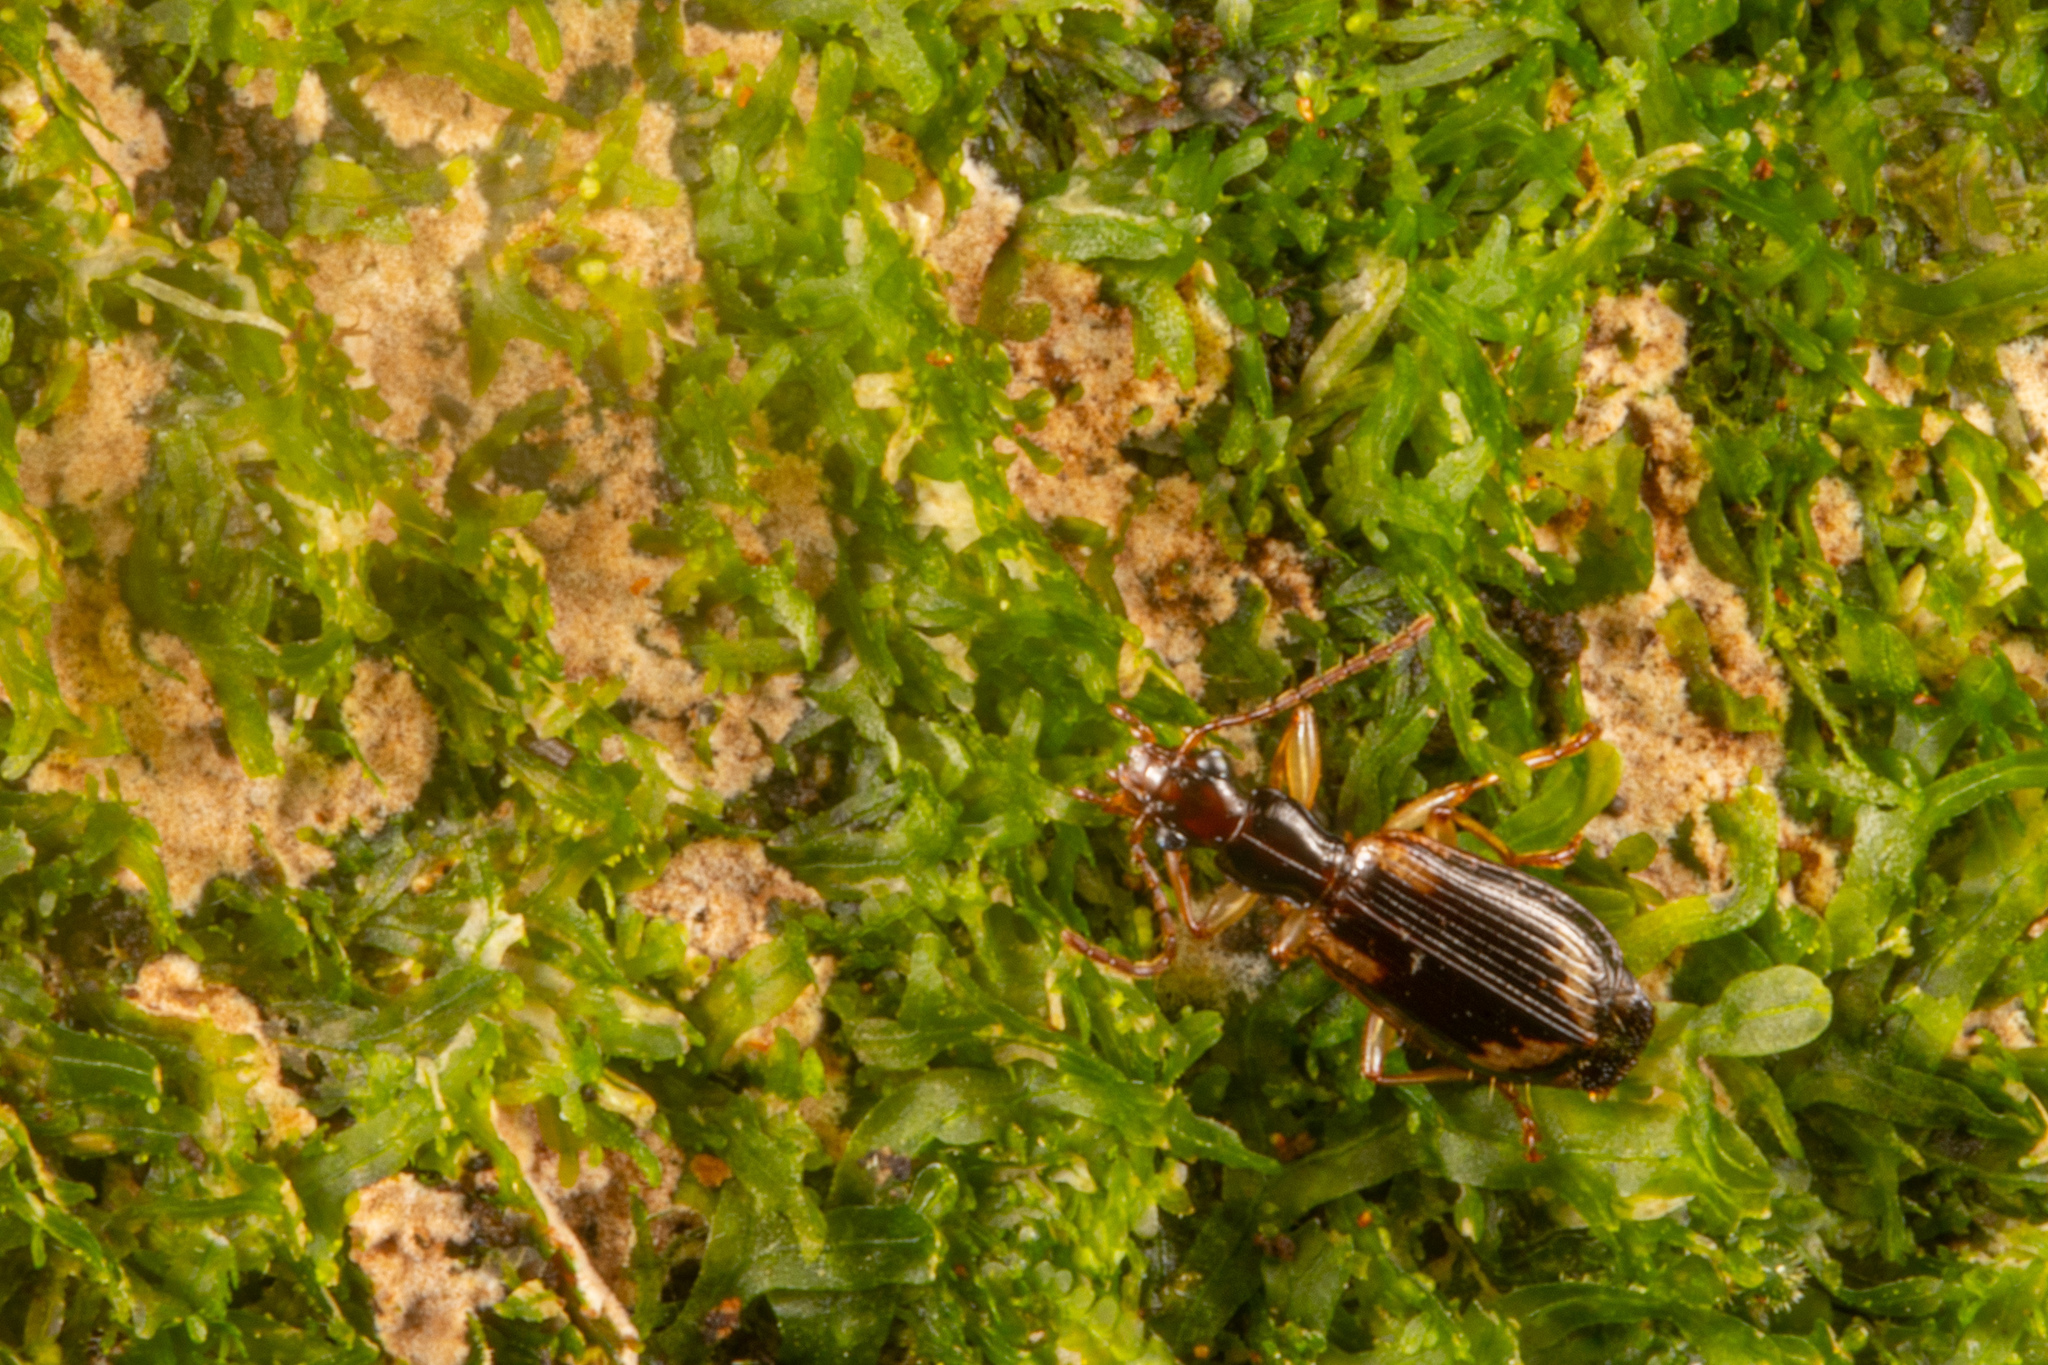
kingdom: Animalia
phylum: Arthropoda
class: Insecta
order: Coleoptera
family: Carabidae
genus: Demetrida
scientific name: Demetrida nasuta
